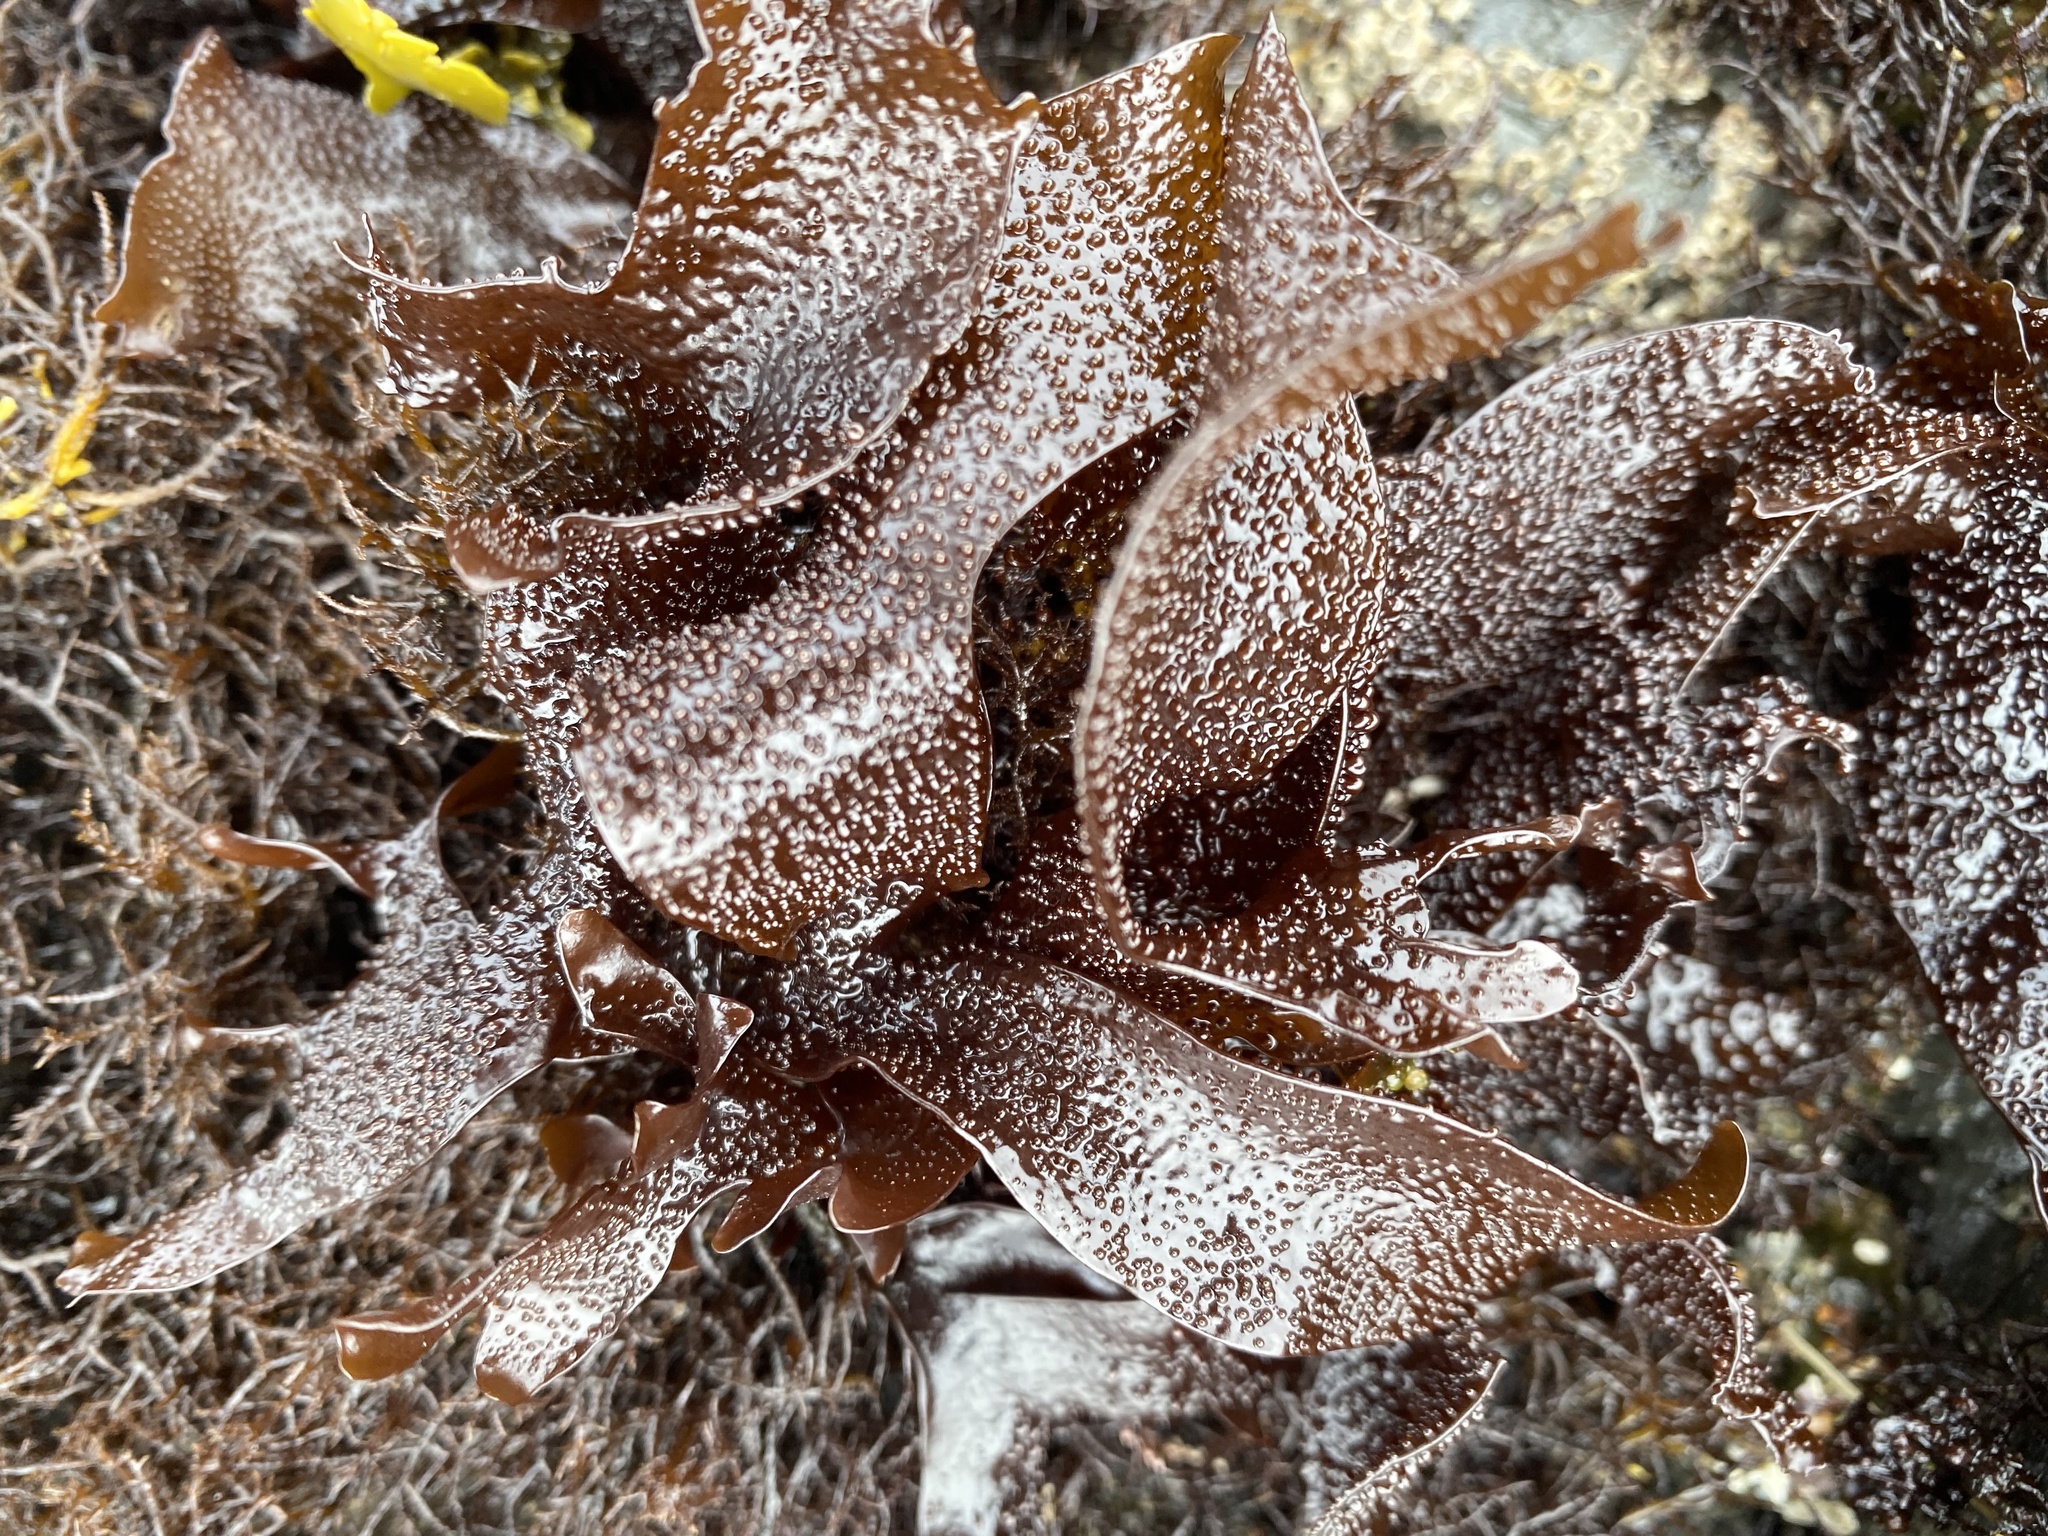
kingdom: Plantae
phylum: Rhodophyta
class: Florideophyceae
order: Gigartinales
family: Phyllophoraceae
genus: Mastocarpus
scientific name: Mastocarpus papillatus
